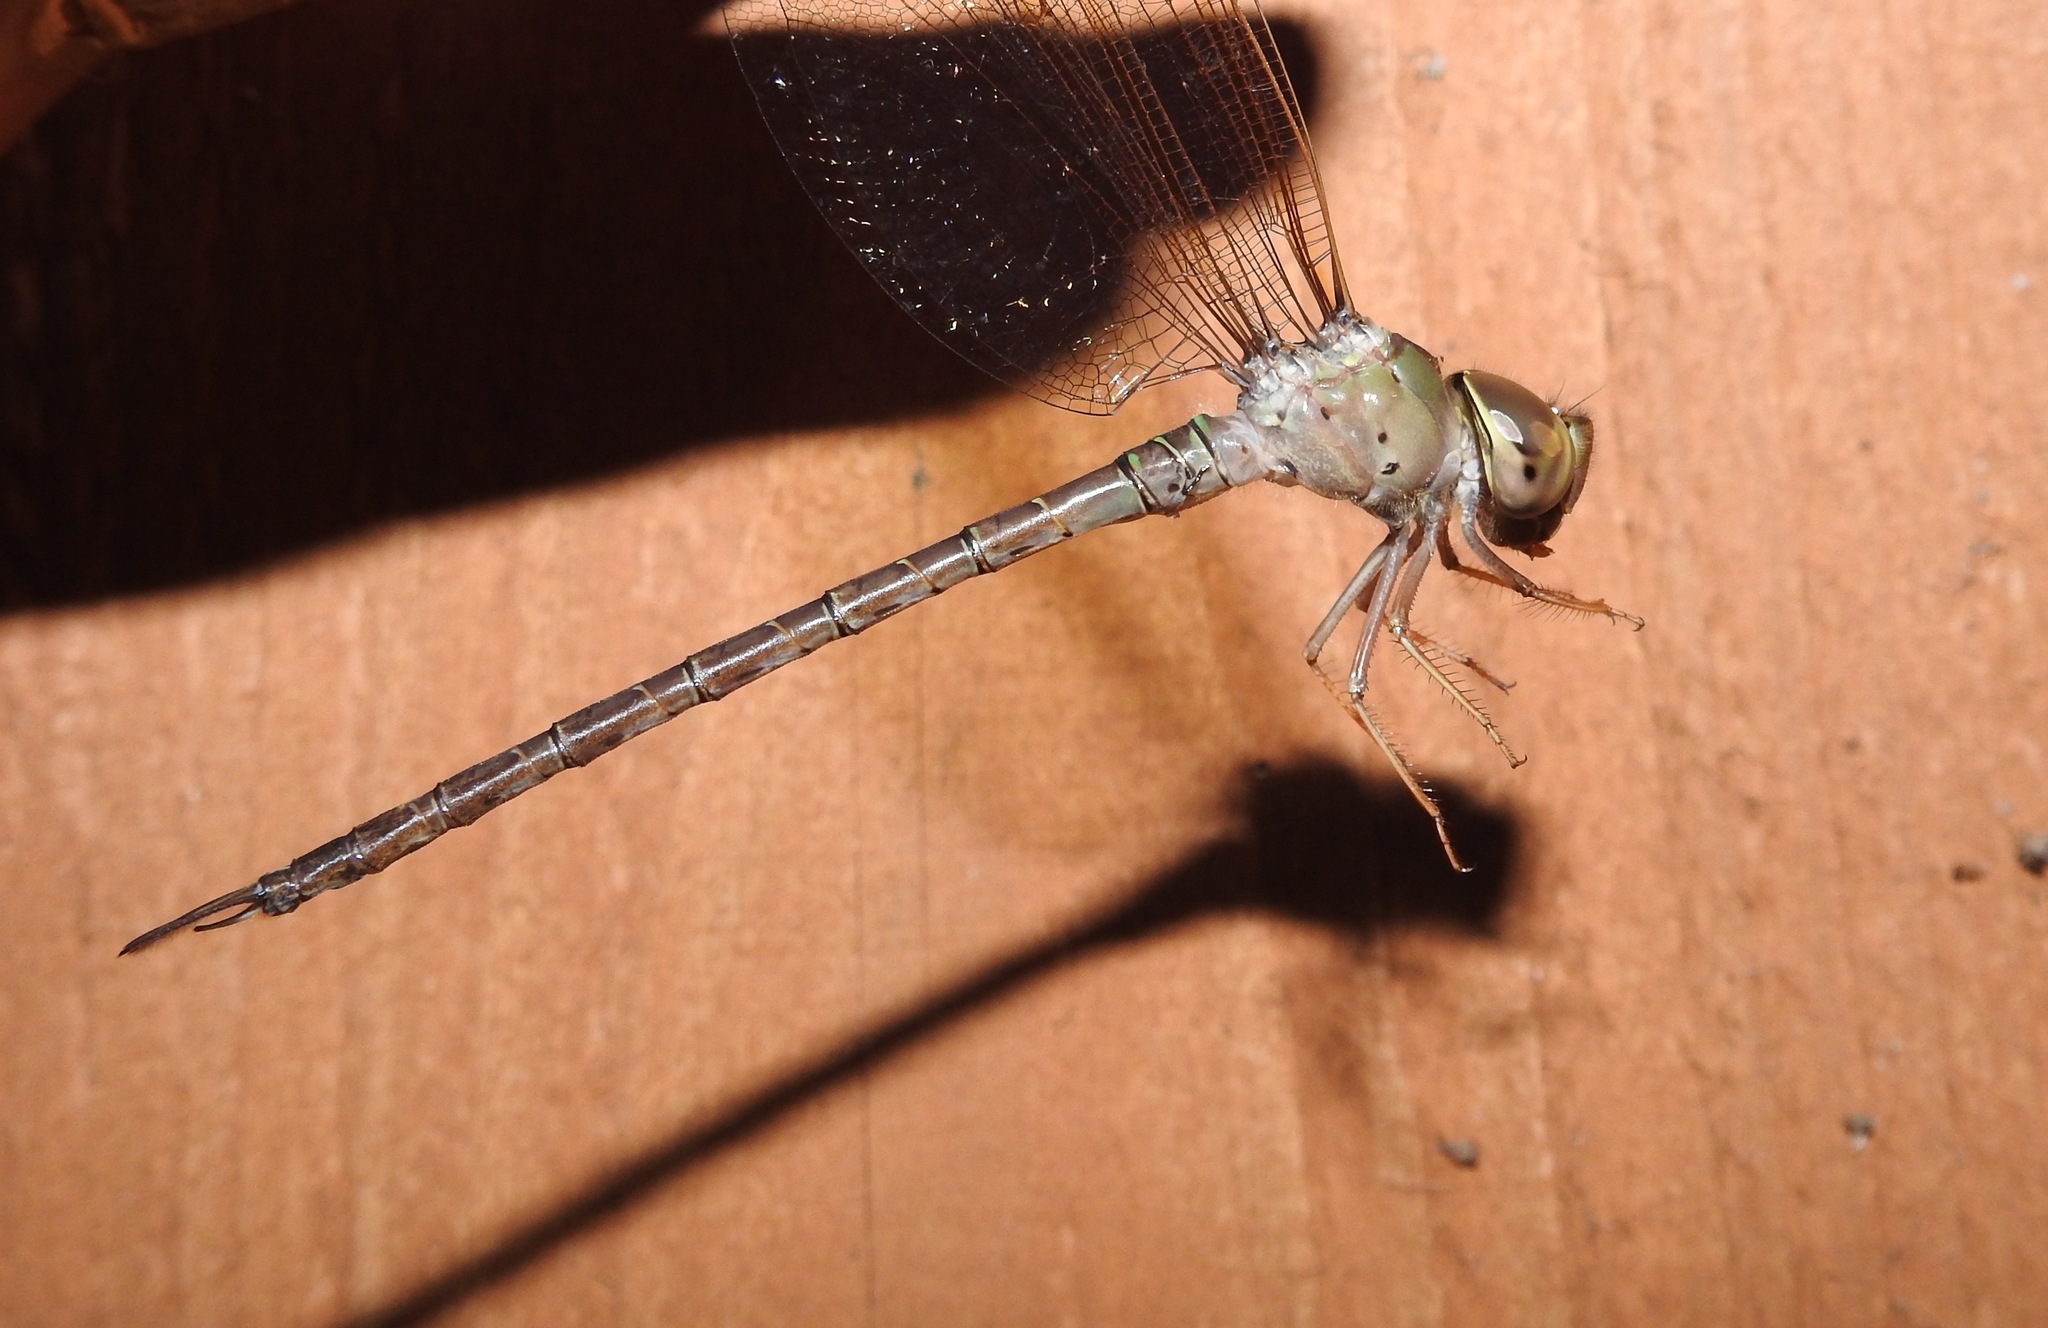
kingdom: Animalia
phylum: Arthropoda
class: Insecta
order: Odonata
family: Aeshnidae
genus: Gynacantha
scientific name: Gynacantha nervosa
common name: Twilight darner
